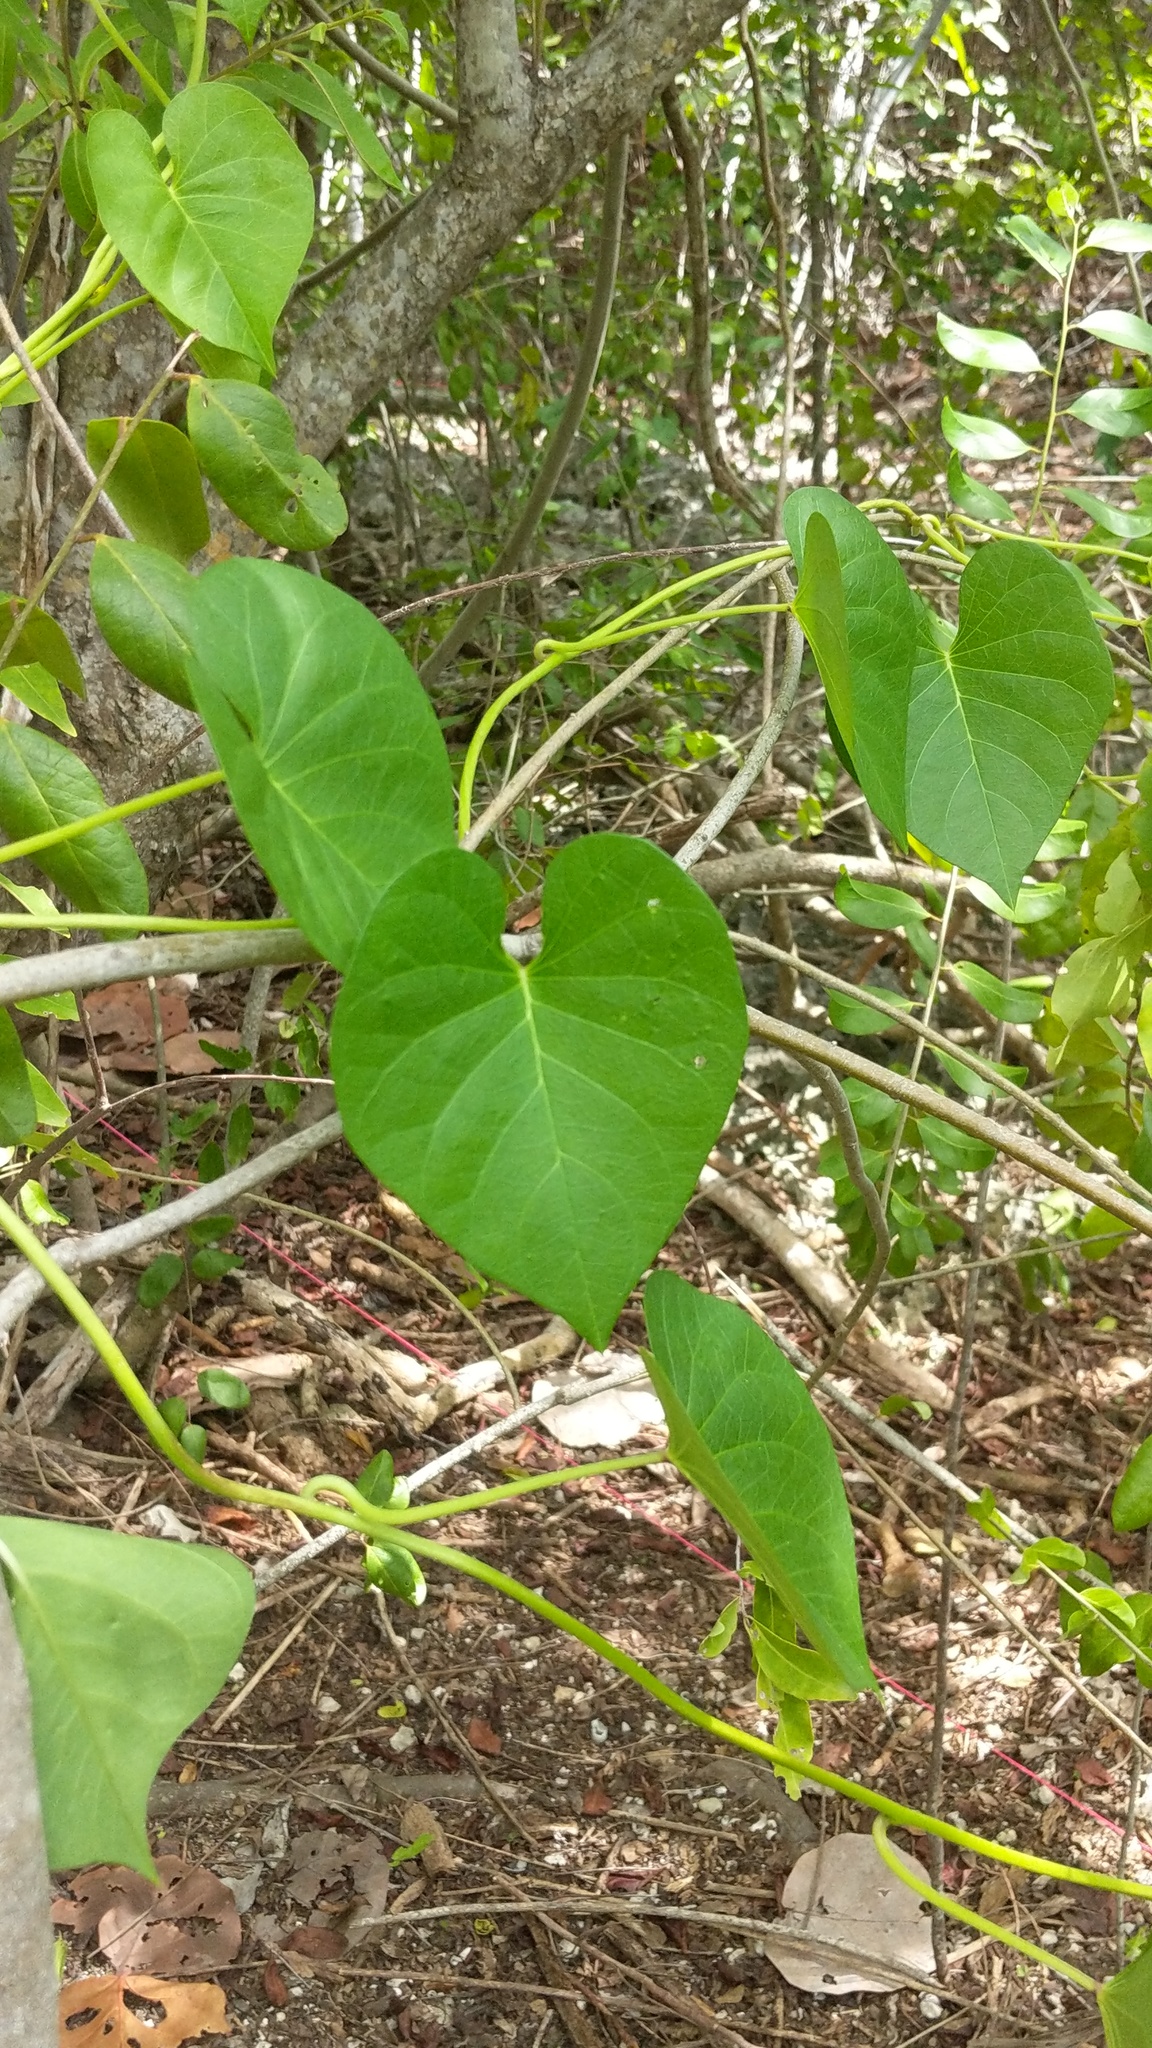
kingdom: Plantae
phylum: Tracheophyta
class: Magnoliopsida
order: Solanales
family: Convolvulaceae
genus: Ipomoea
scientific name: Ipomoea violacea
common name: Beach moonflower
